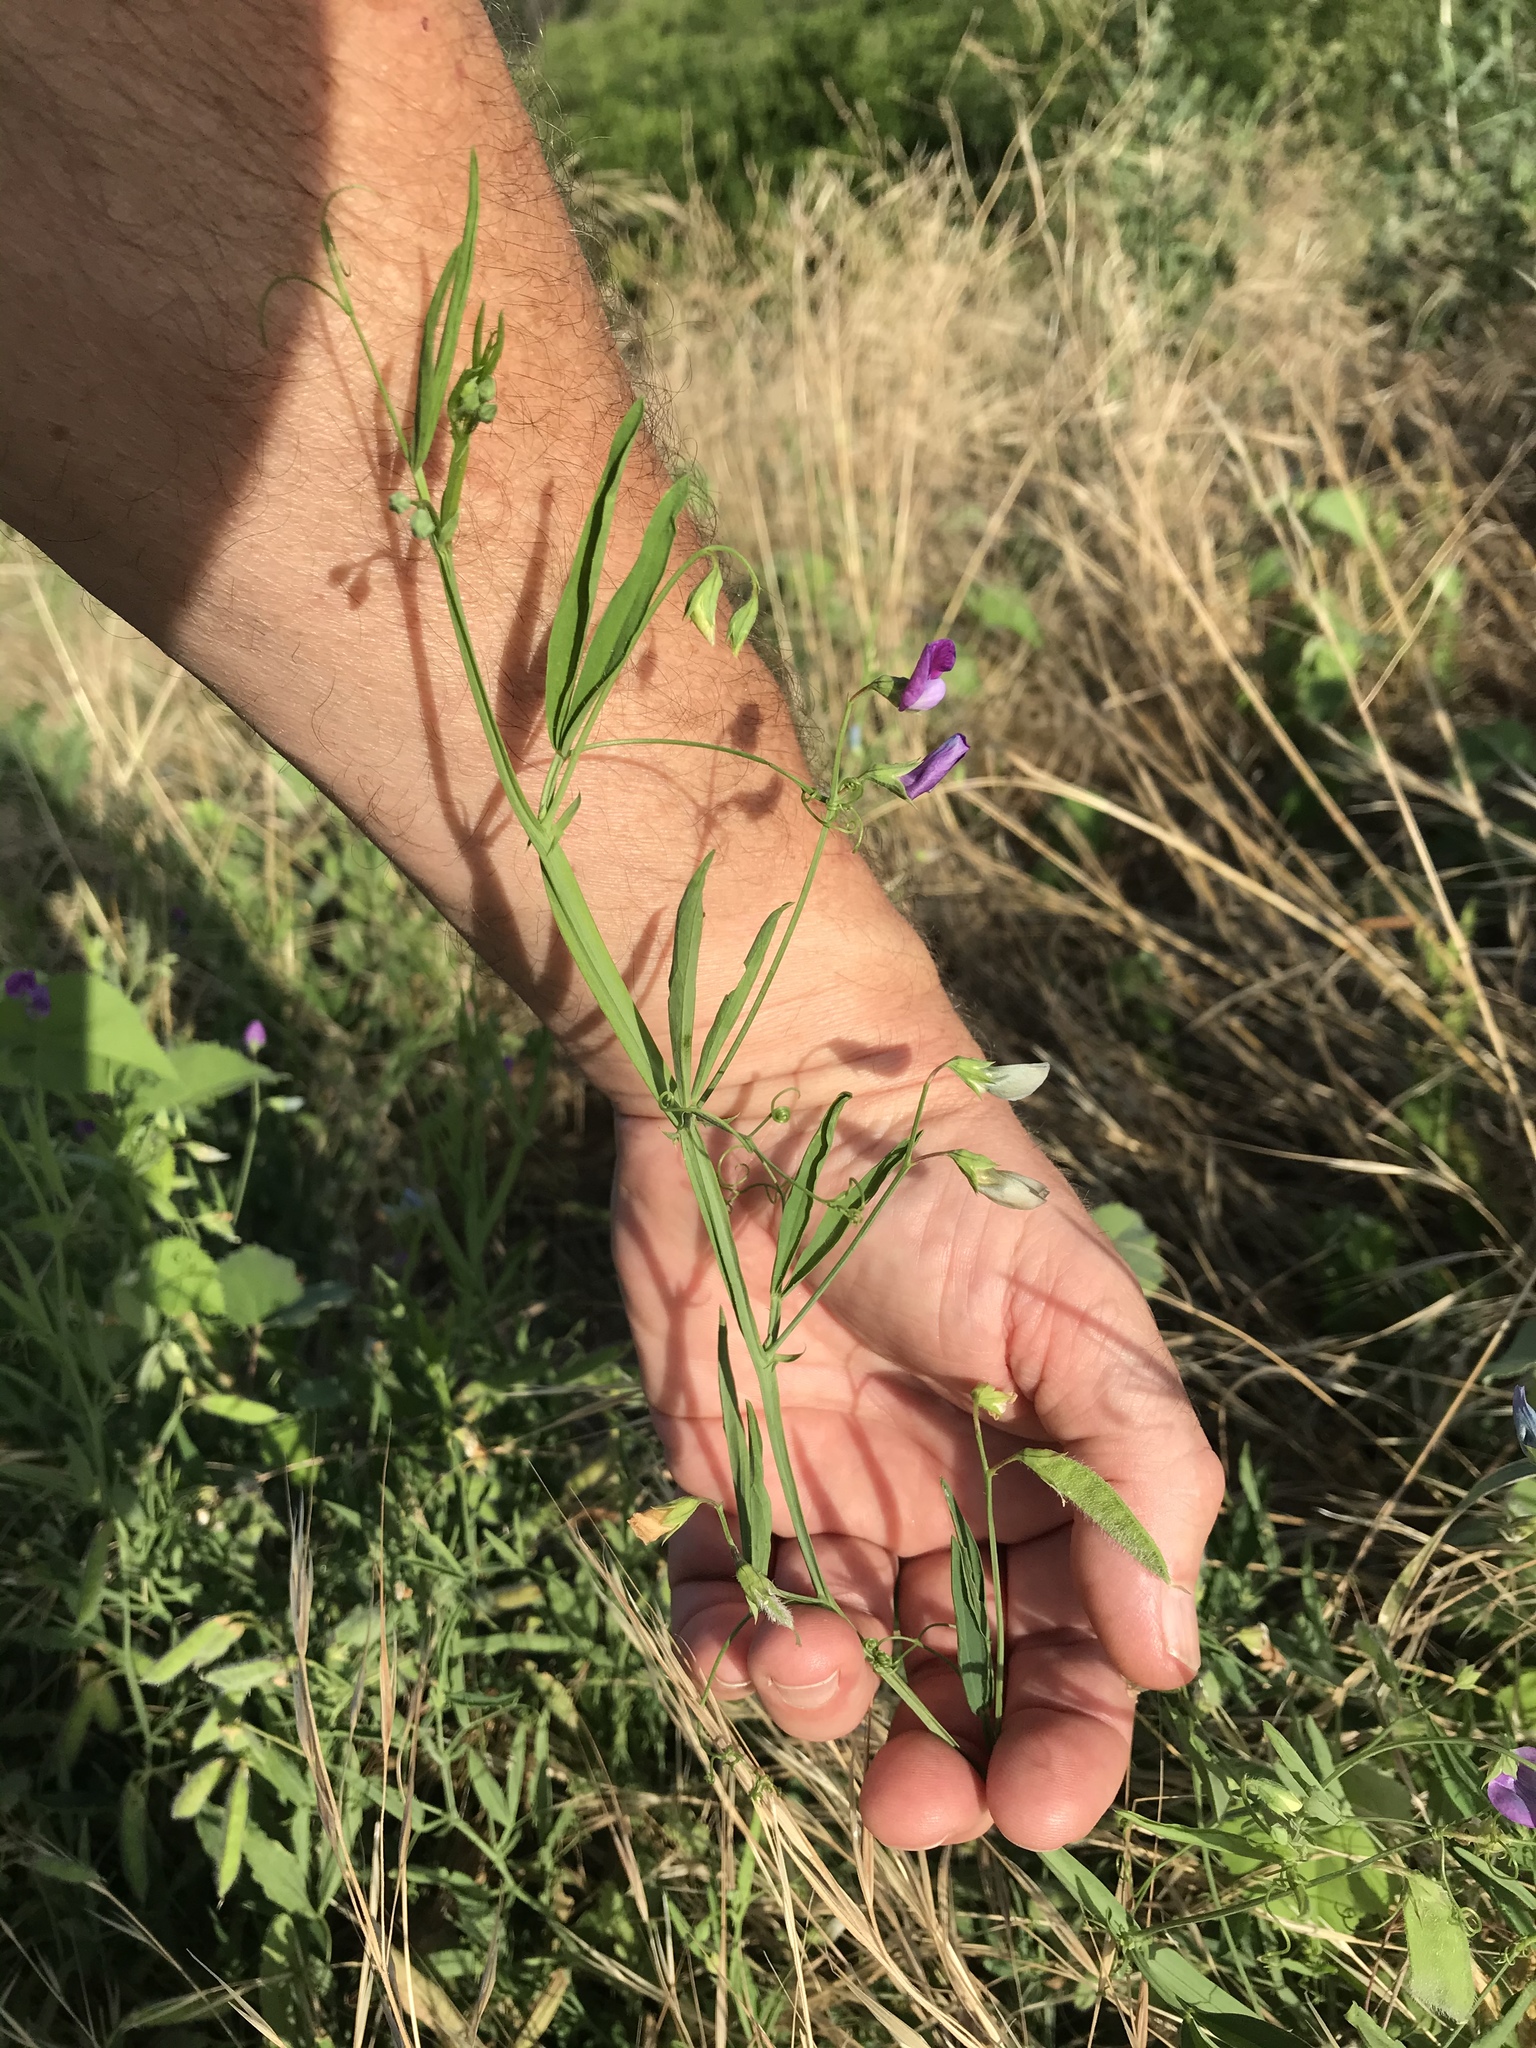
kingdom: Plantae
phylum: Tracheophyta
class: Magnoliopsida
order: Fabales
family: Fabaceae
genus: Lathyrus
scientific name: Lathyrus hirsutus
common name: Hairy vetchling
